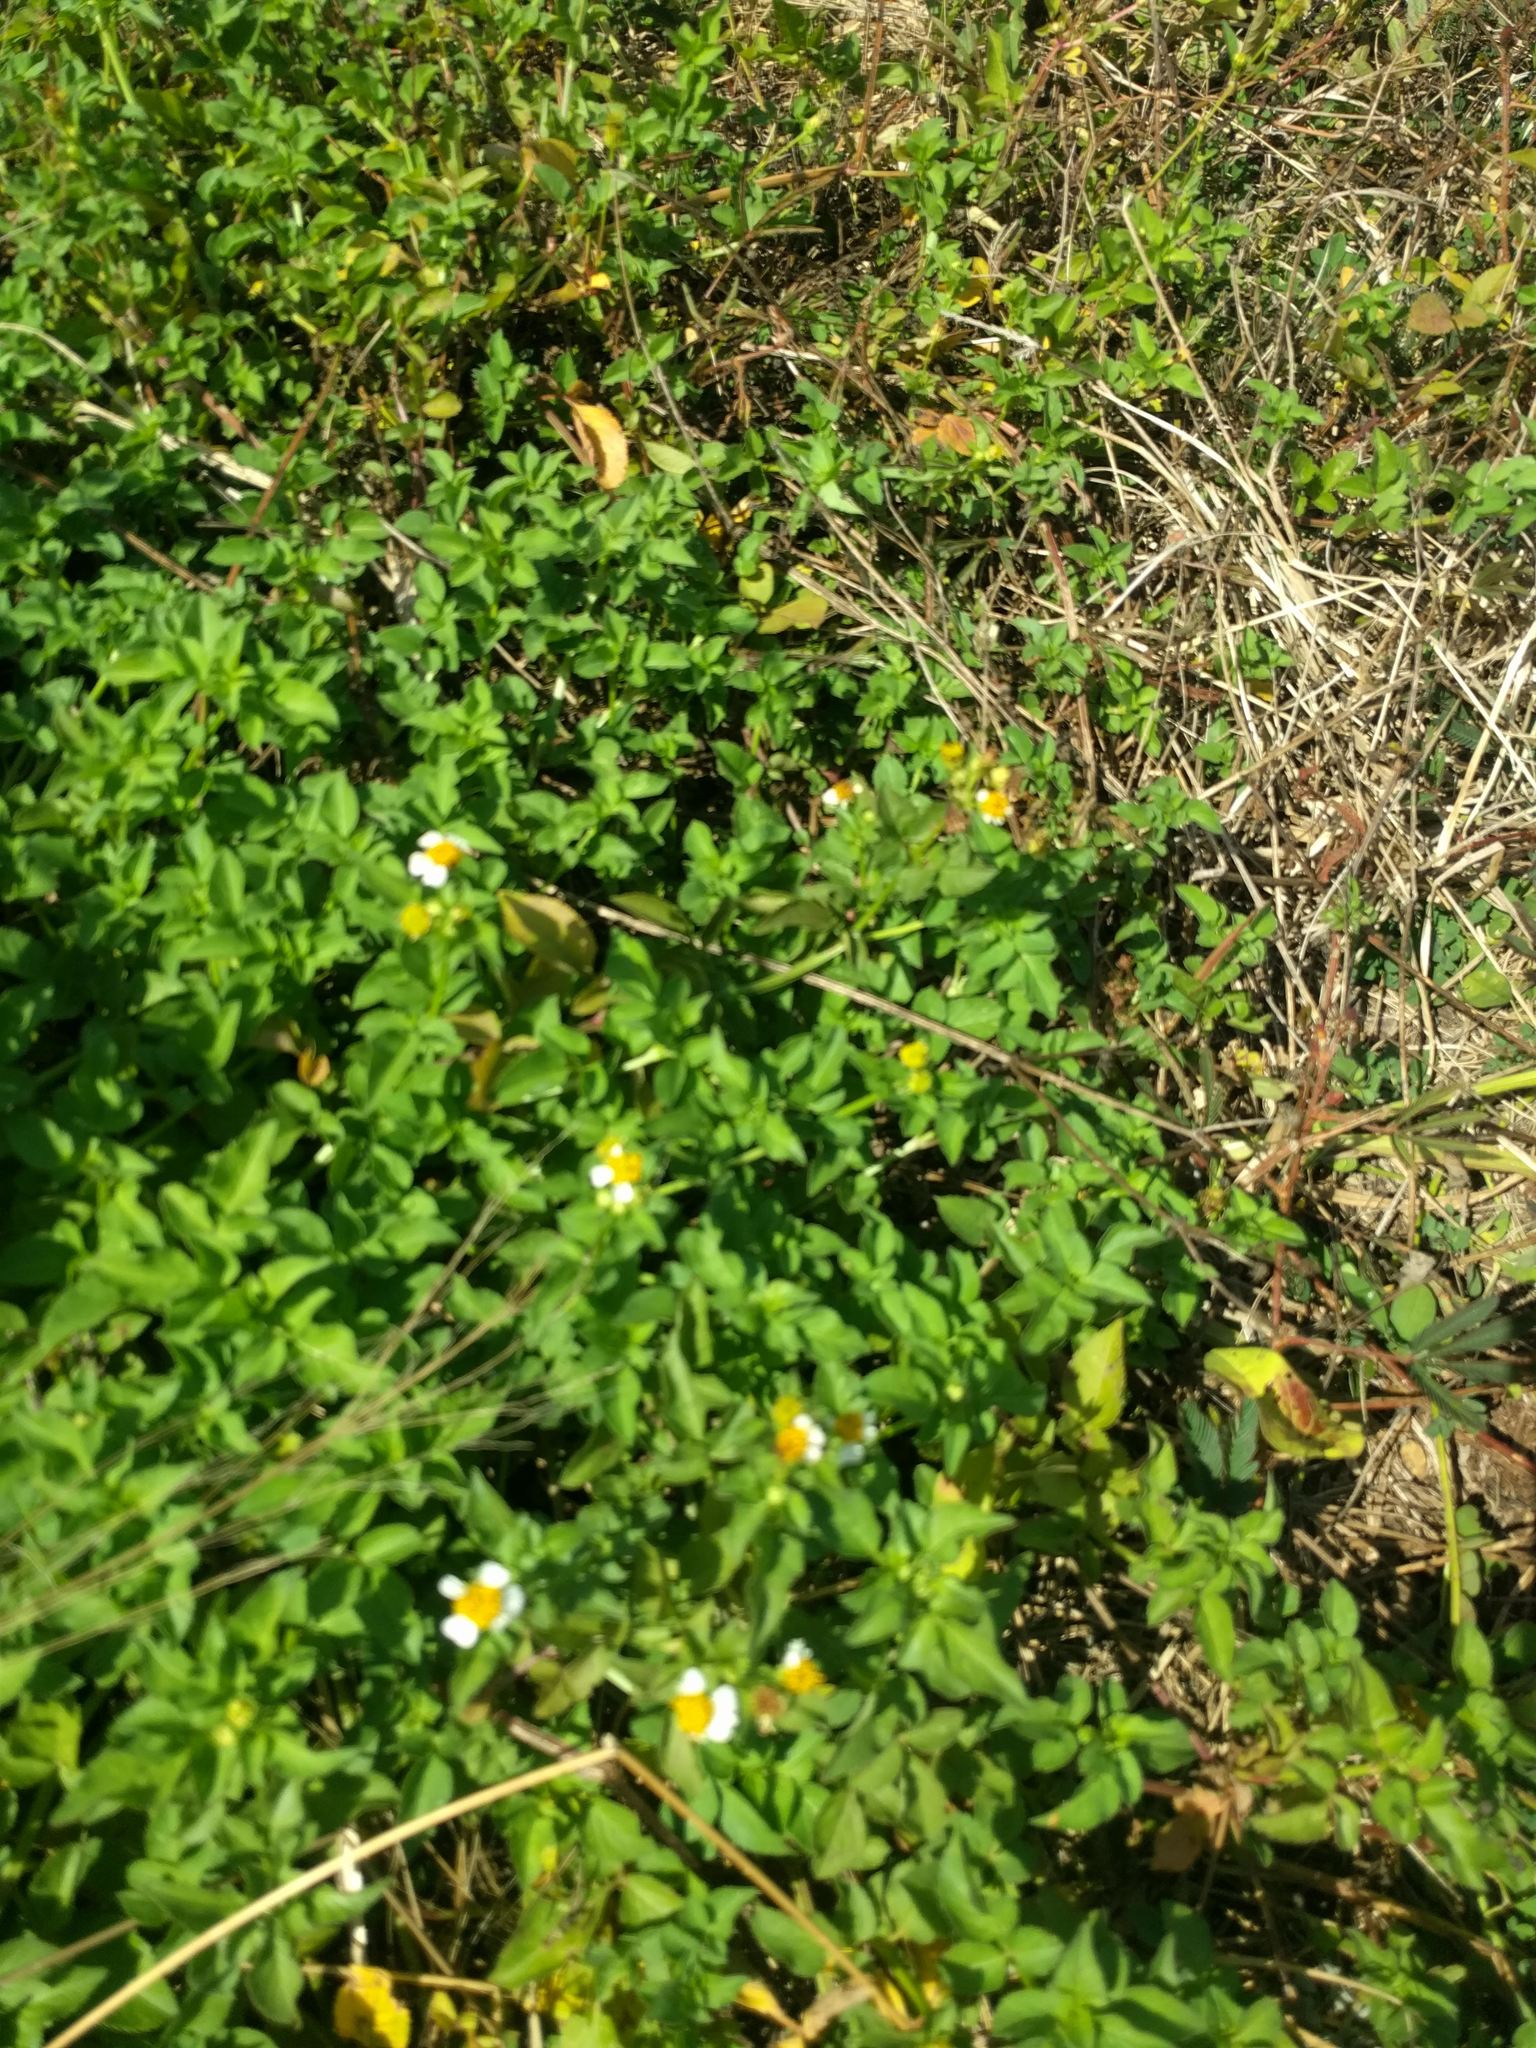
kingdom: Plantae
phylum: Tracheophyta
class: Magnoliopsida
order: Asterales
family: Asteraceae
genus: Bidens
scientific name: Bidens alba
